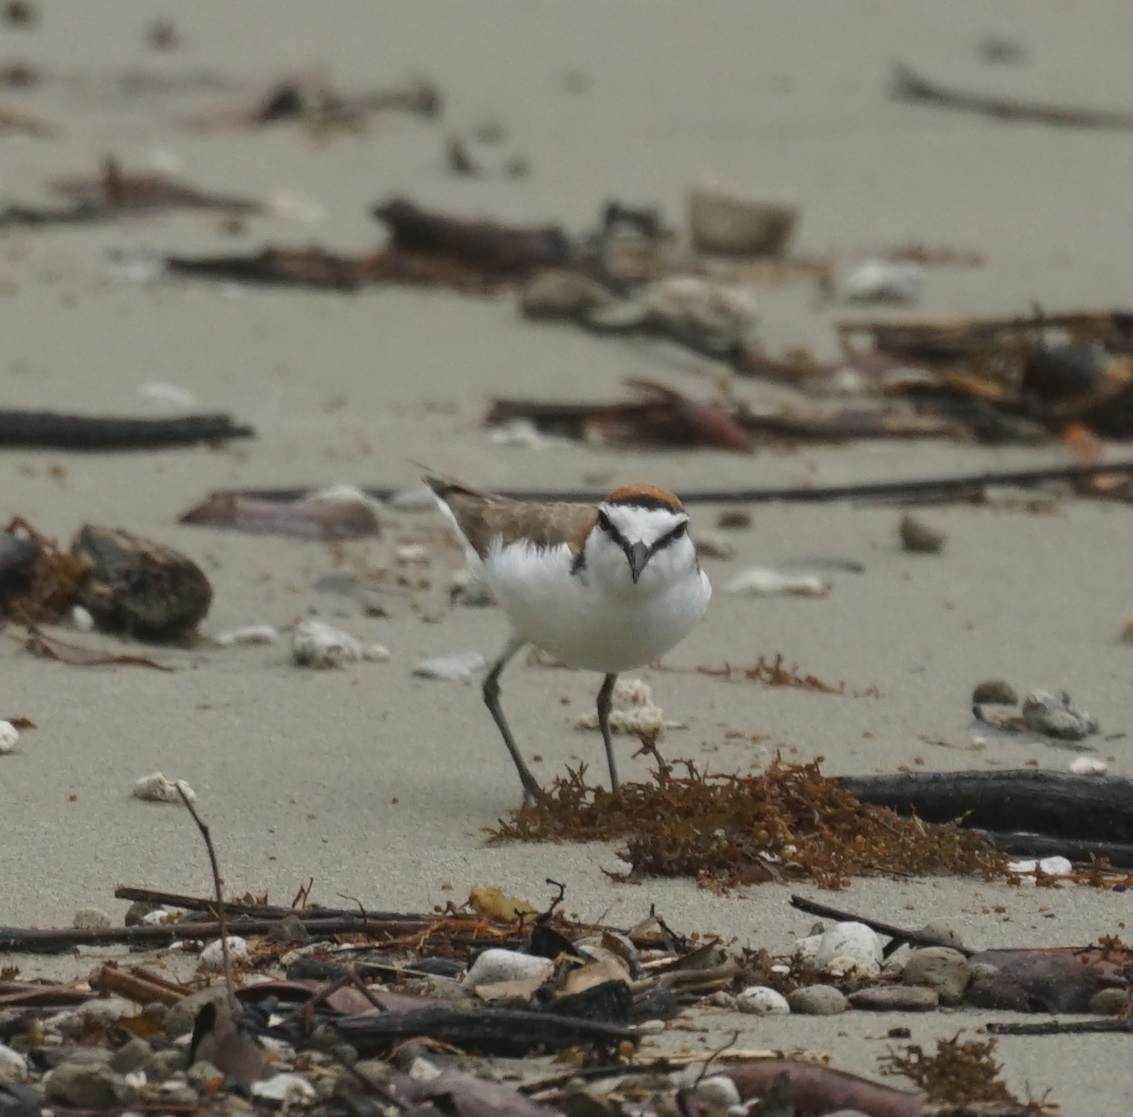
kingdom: Animalia
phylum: Chordata
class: Aves
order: Charadriiformes
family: Charadriidae
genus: Anarhynchus
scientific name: Anarhynchus
